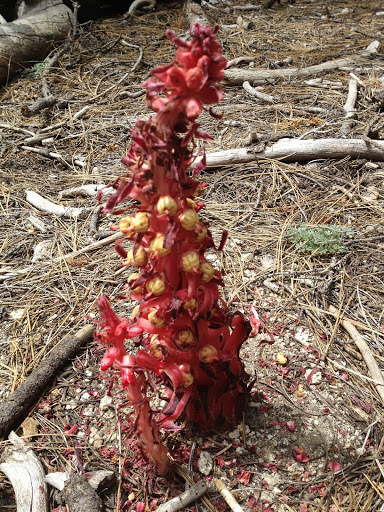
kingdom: Plantae
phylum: Tracheophyta
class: Magnoliopsida
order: Ericales
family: Ericaceae
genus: Sarcodes
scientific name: Sarcodes sanguinea
